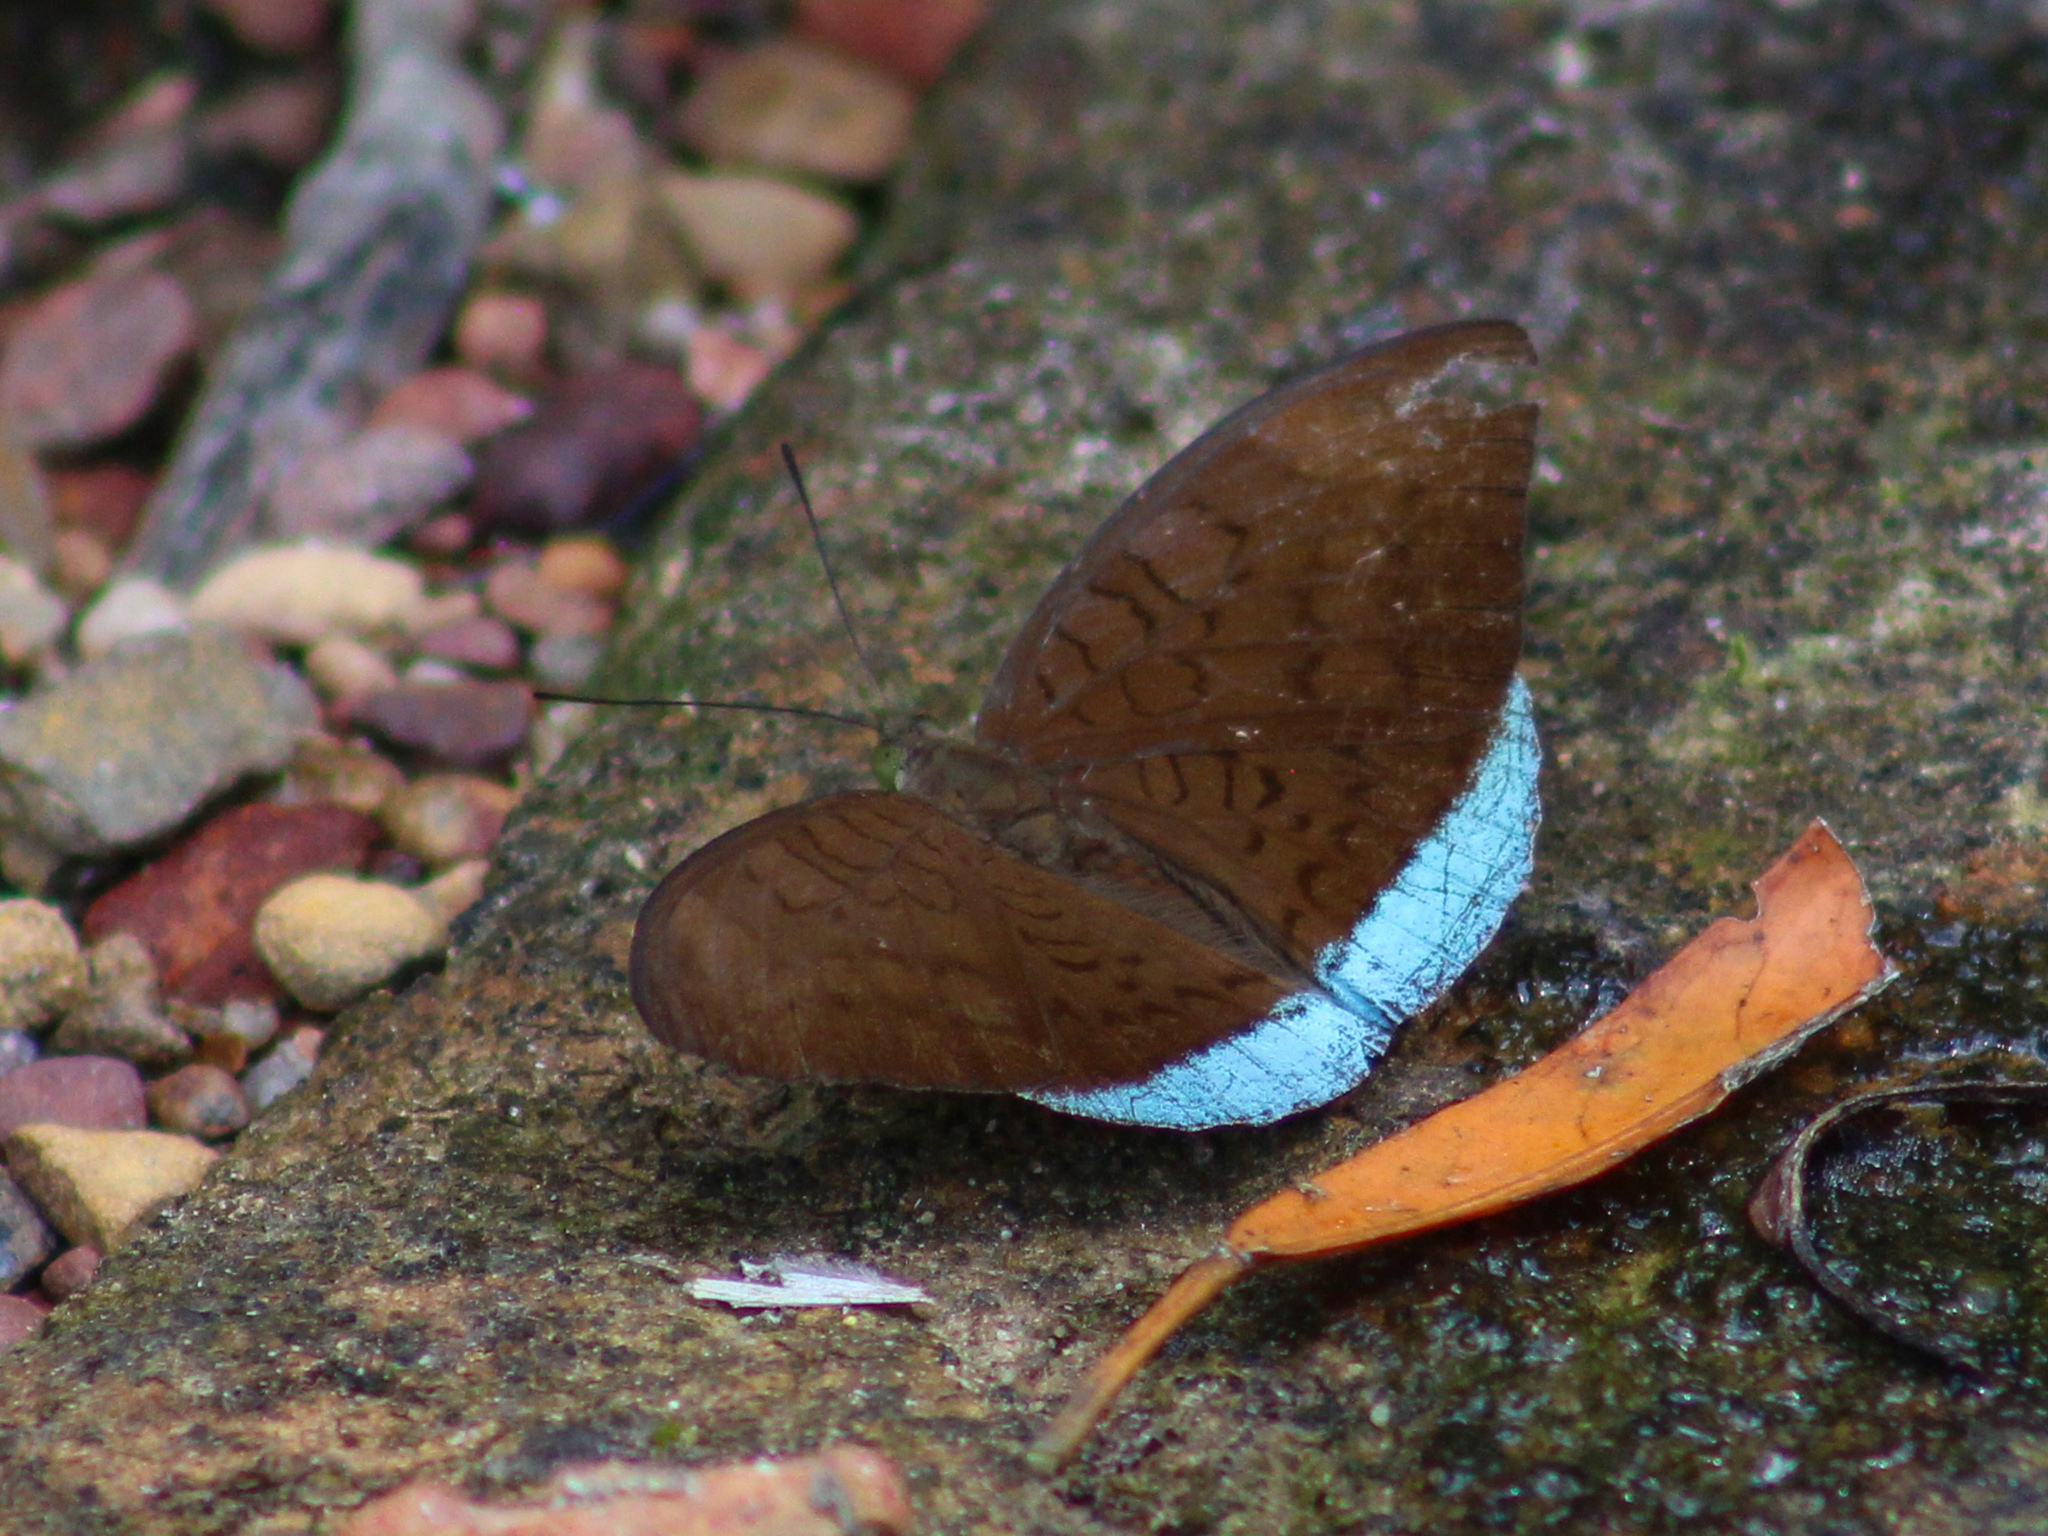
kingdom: Animalia
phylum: Arthropoda
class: Insecta
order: Lepidoptera
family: Nymphalidae
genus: Tanaecia
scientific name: Tanaecia julii
